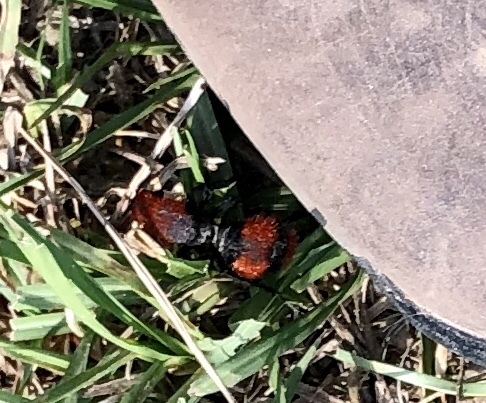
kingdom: Animalia
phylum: Arthropoda
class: Insecta
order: Hymenoptera
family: Mutillidae
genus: Dasymutilla
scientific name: Dasymutilla occidentalis
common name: Common eastern velvet ant
